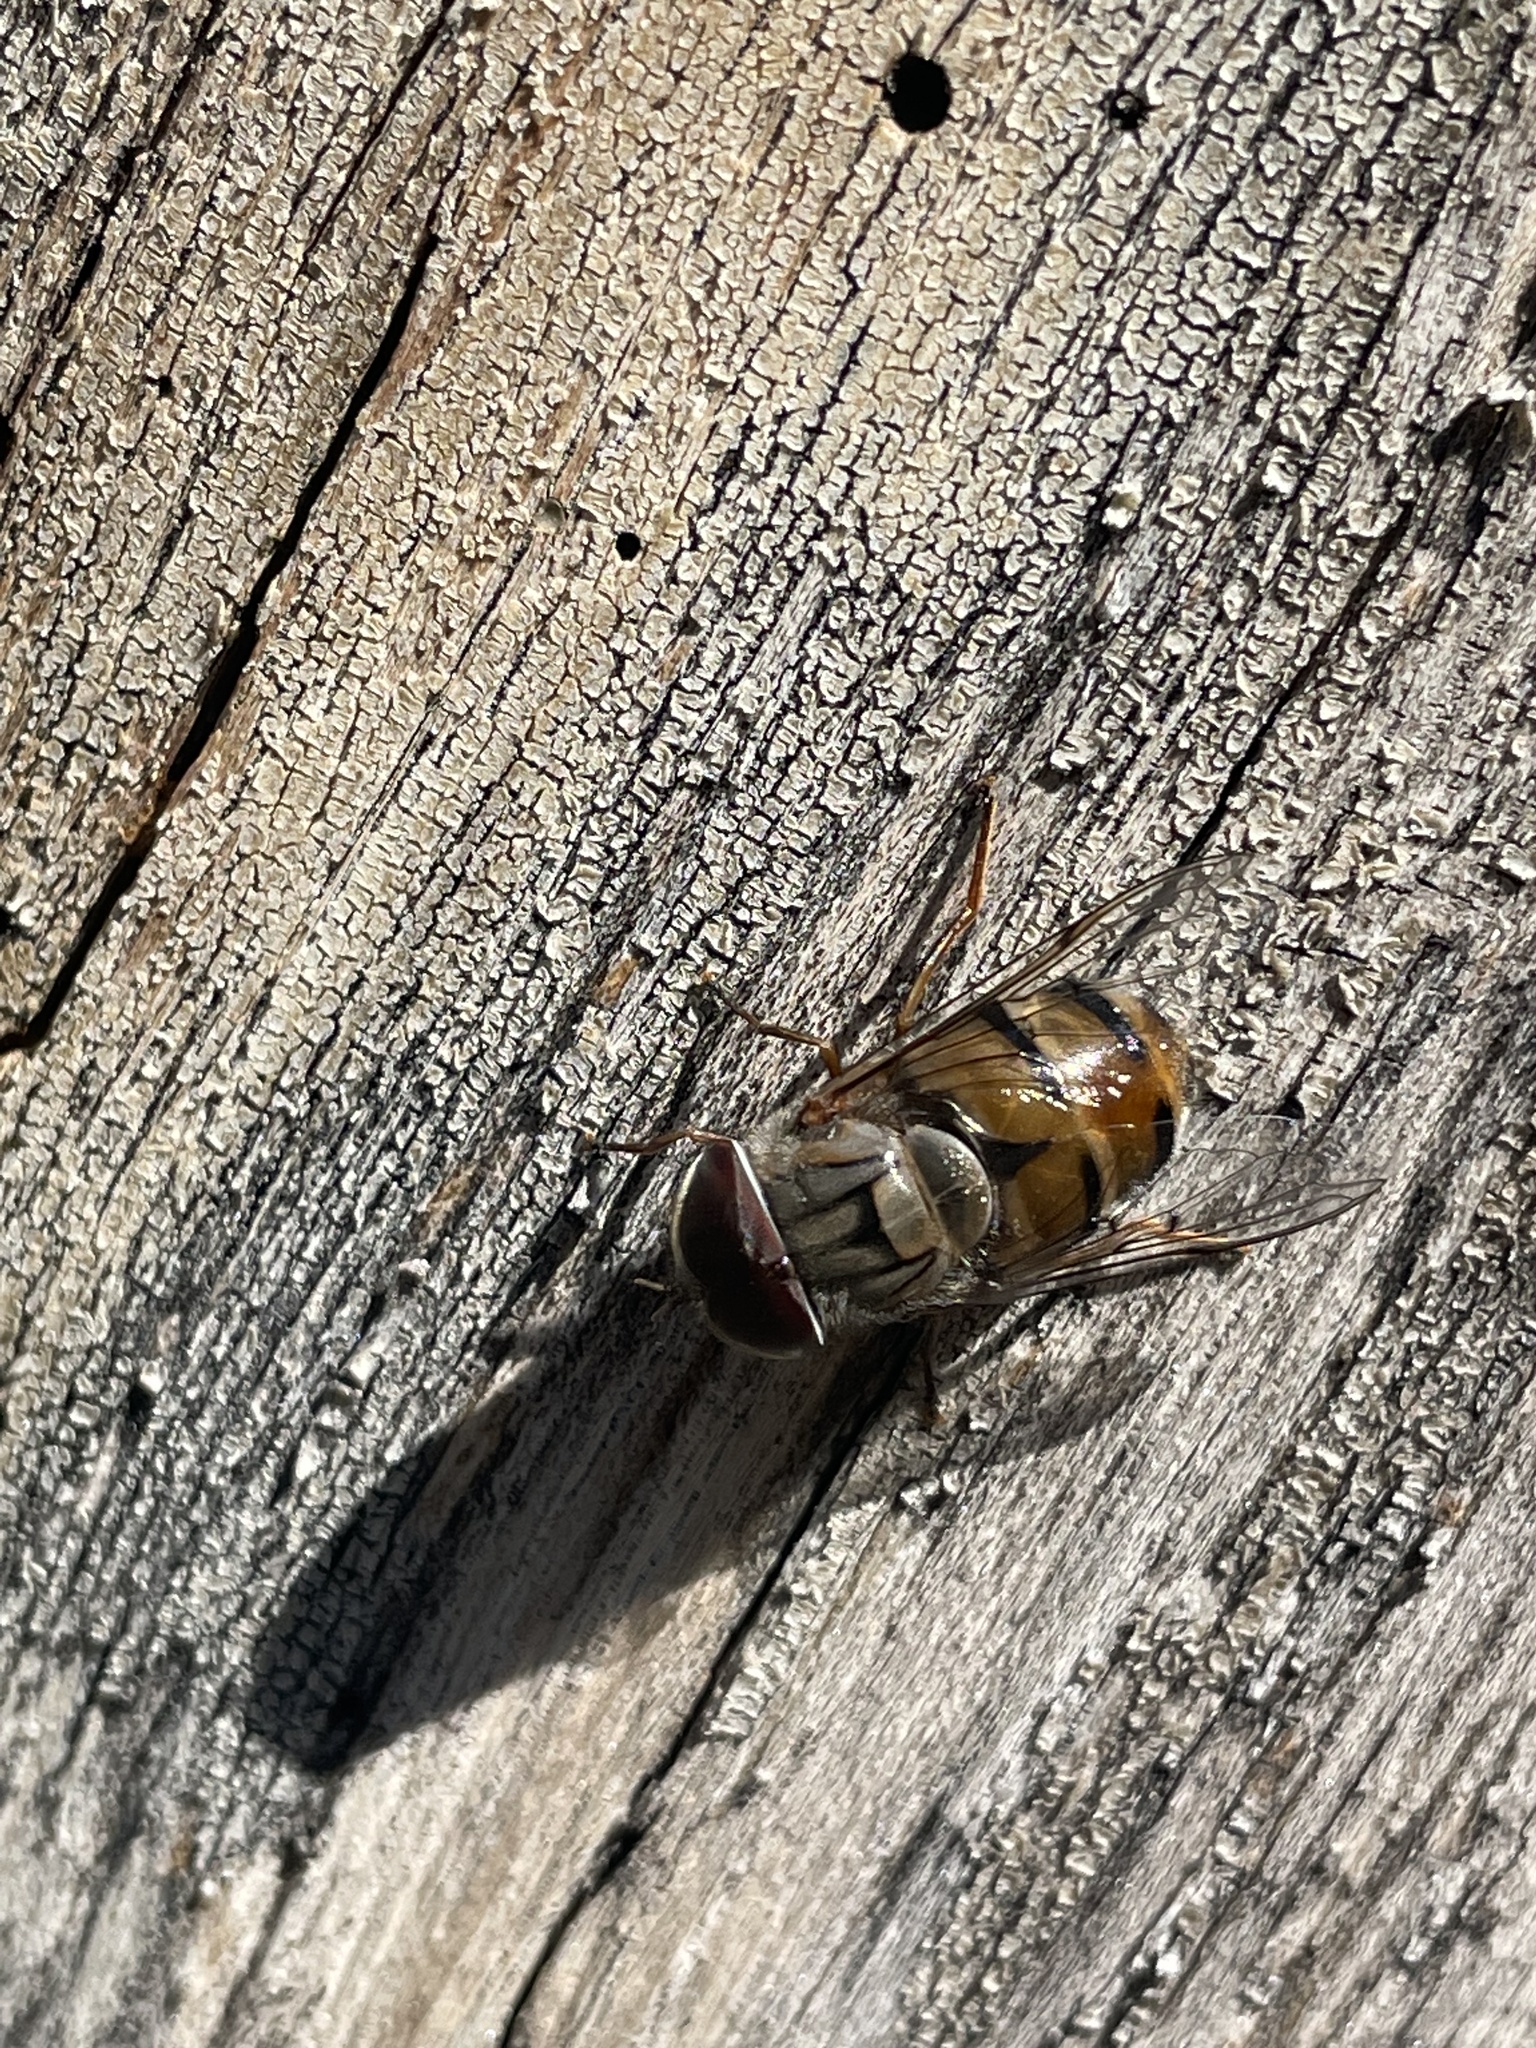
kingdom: Animalia
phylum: Arthropoda
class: Insecta
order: Diptera
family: Syrphidae
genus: Copestylum
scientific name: Copestylum isabellina
